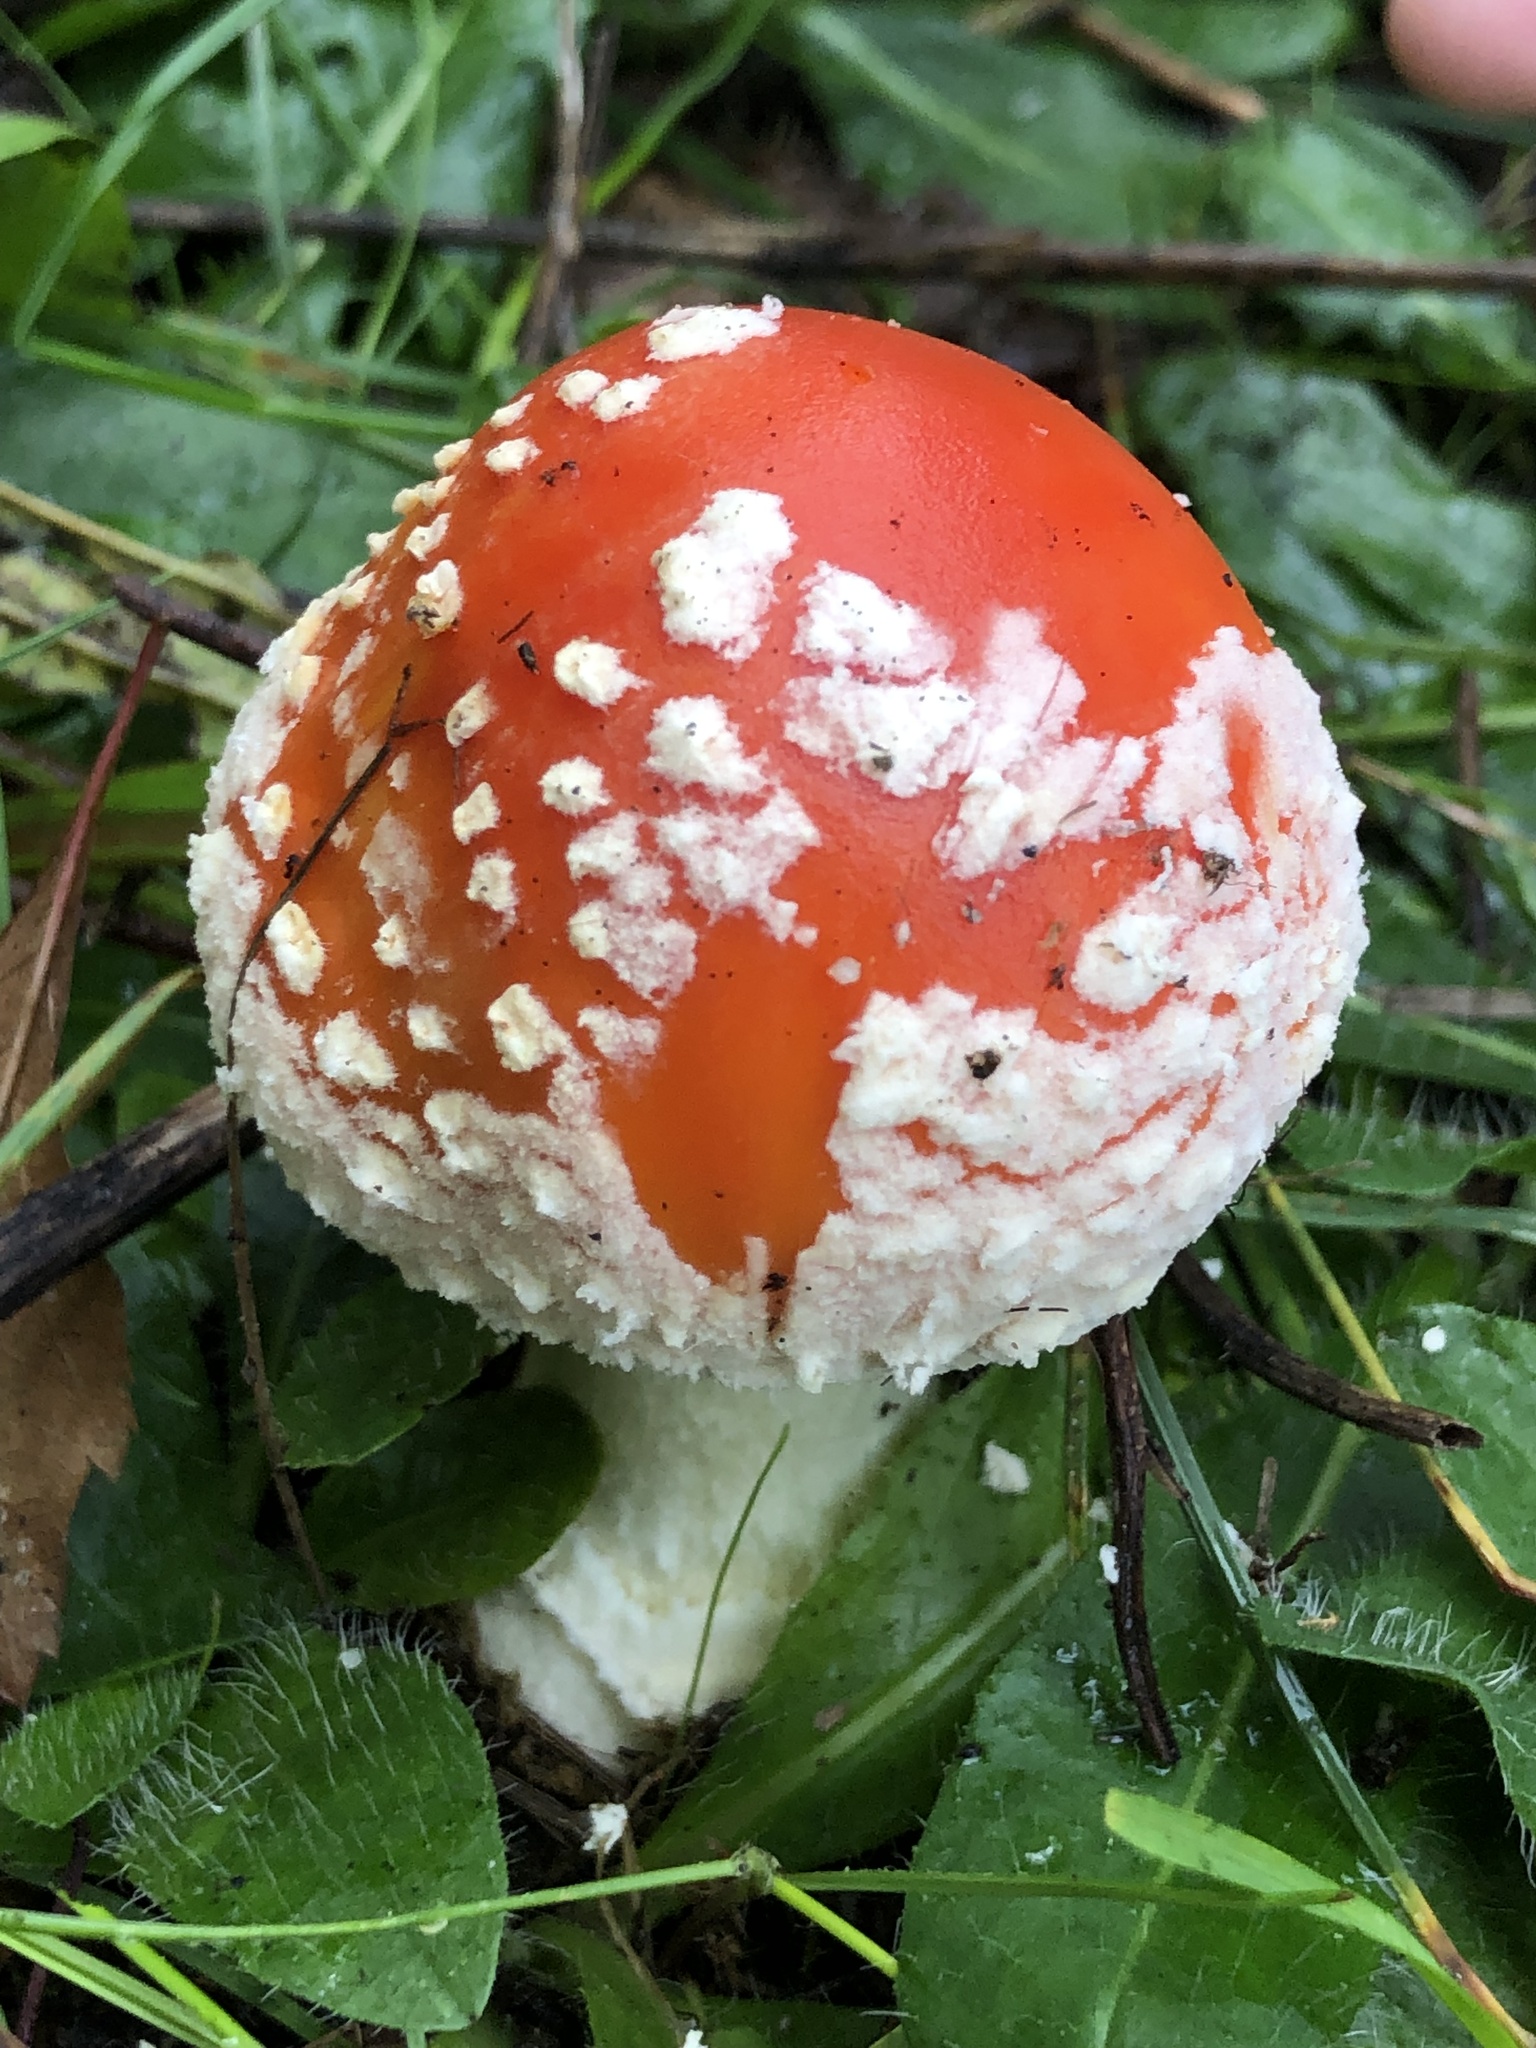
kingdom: Fungi
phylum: Basidiomycota
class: Agaricomycetes
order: Agaricales
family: Amanitaceae
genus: Amanita
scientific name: Amanita muscaria
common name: Fly agaric
